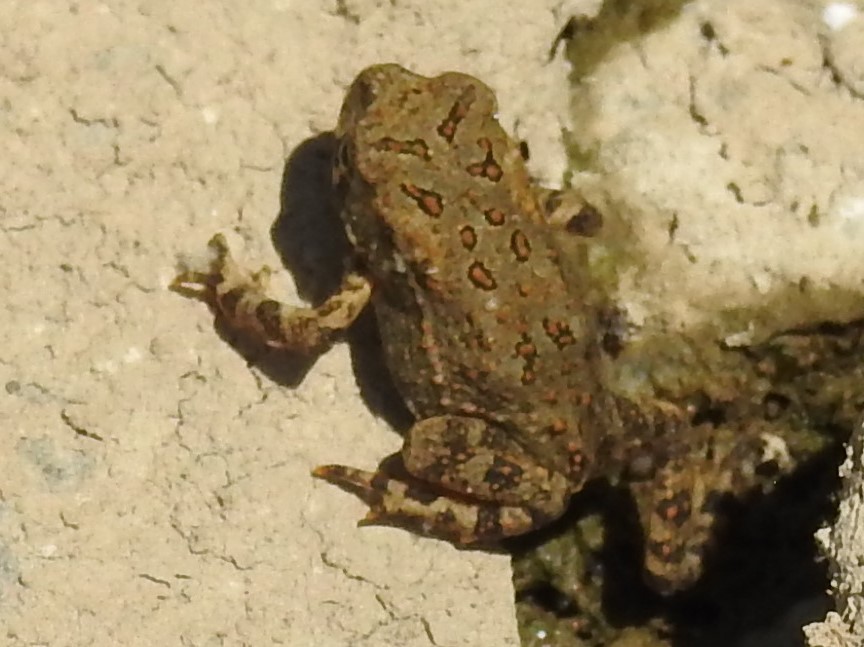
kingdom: Animalia
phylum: Chordata
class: Amphibia
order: Anura
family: Bufonidae
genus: Anaxyrus
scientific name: Anaxyrus americanus
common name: American toad
